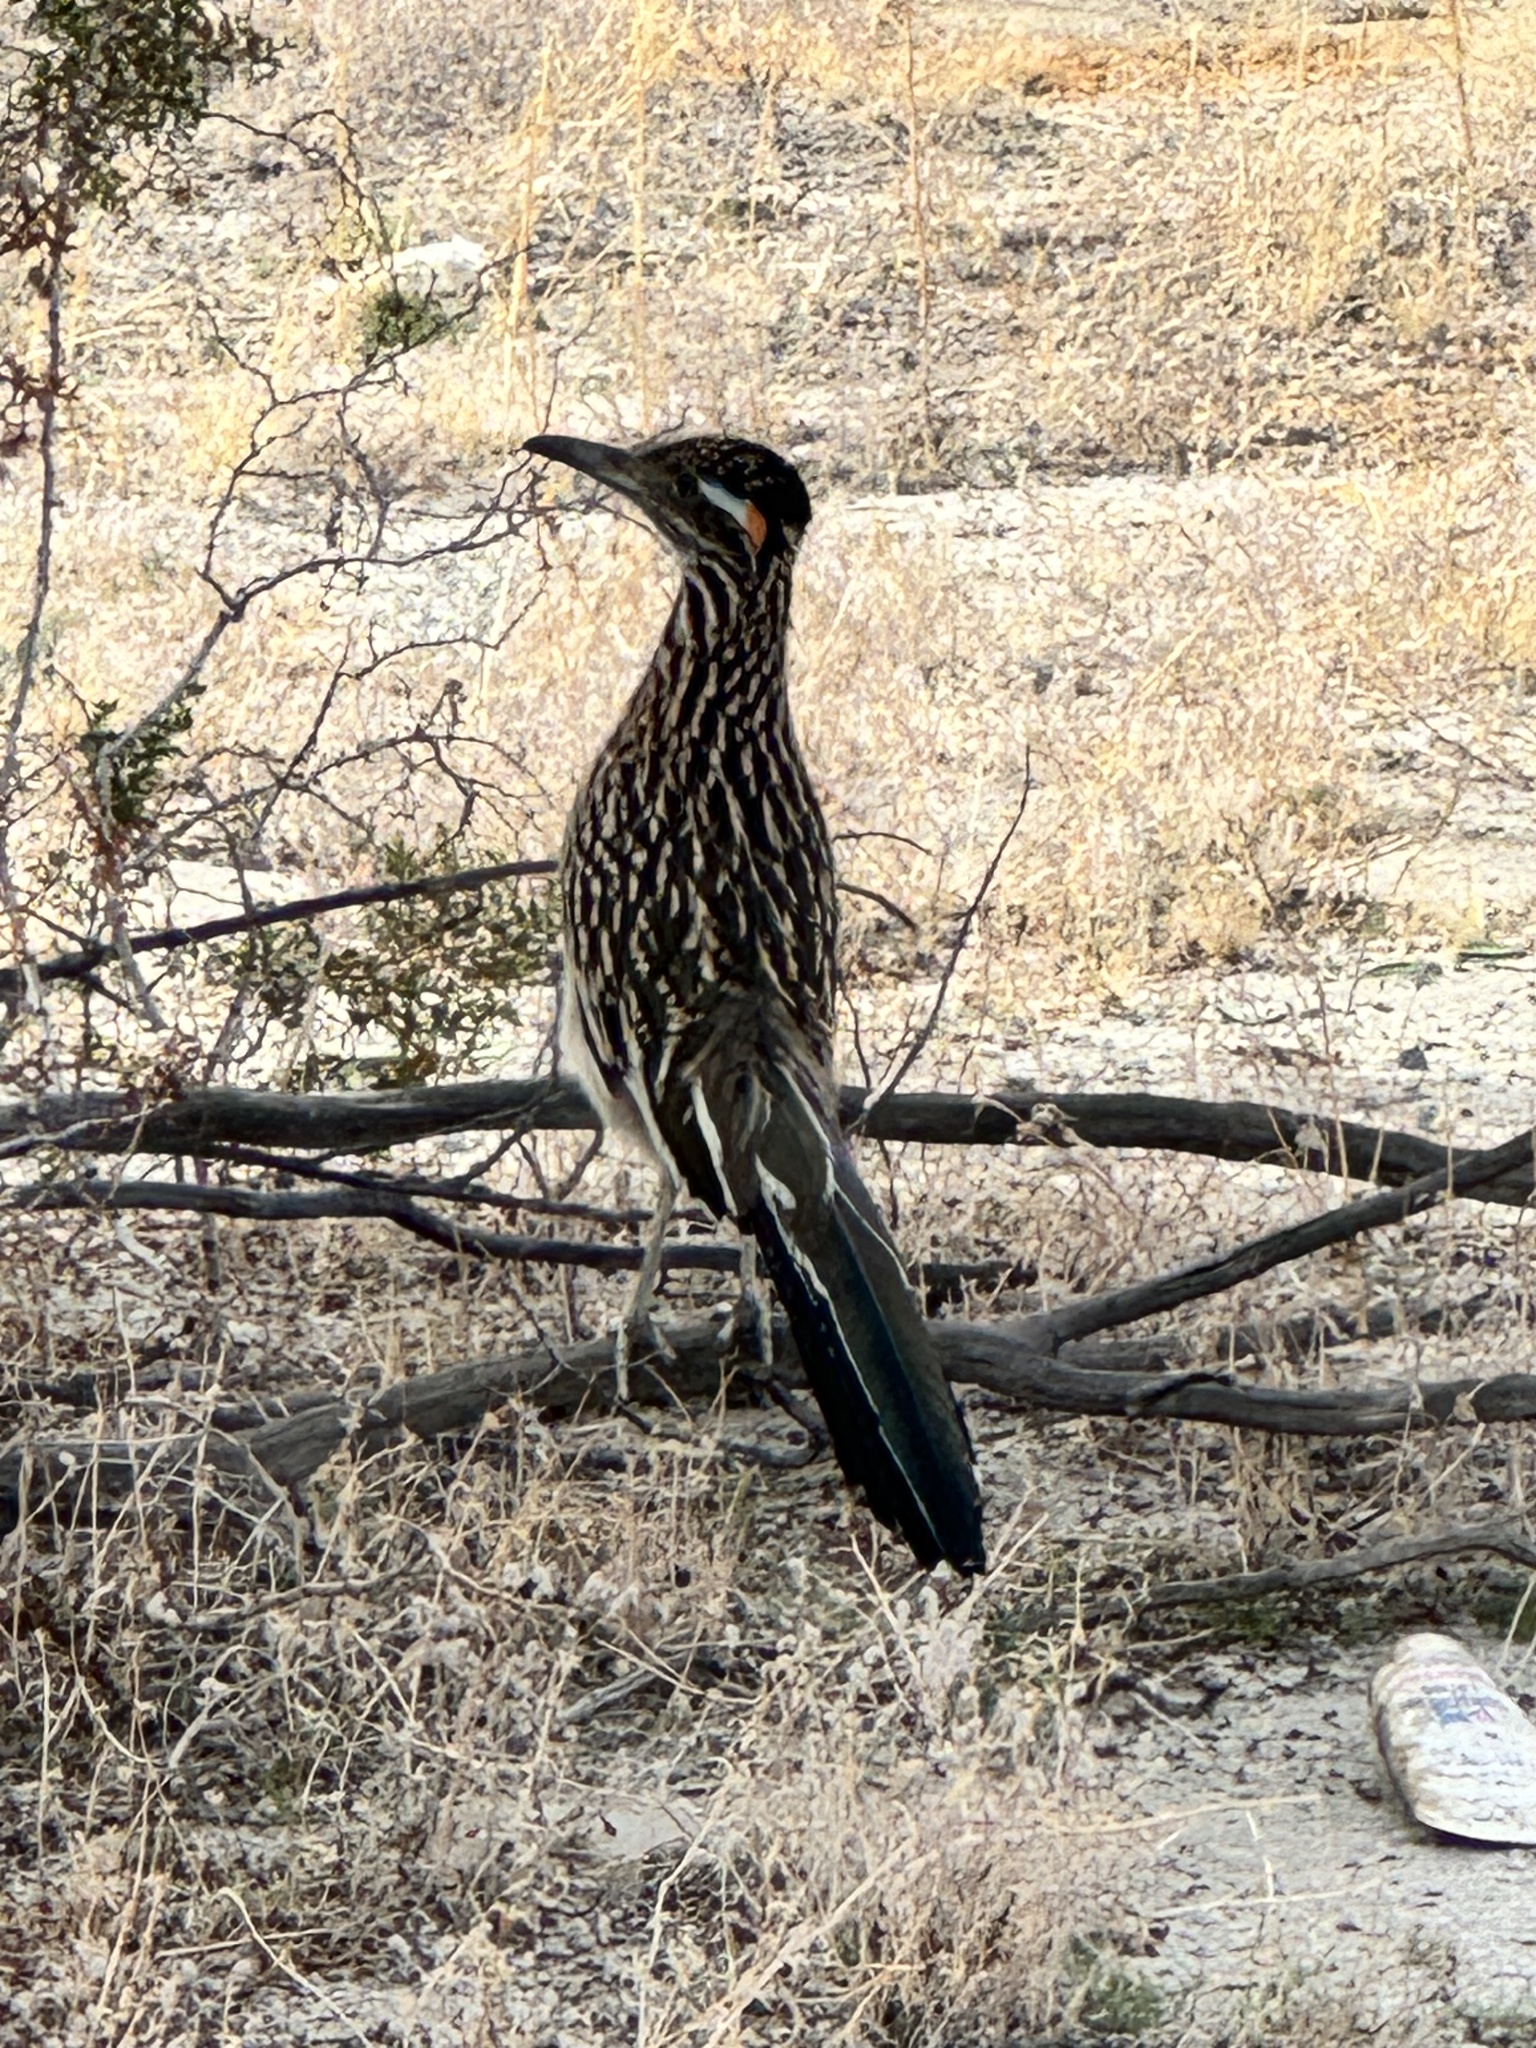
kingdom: Animalia
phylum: Chordata
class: Aves
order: Cuculiformes
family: Cuculidae
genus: Geococcyx
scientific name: Geococcyx californianus
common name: Greater roadrunner
